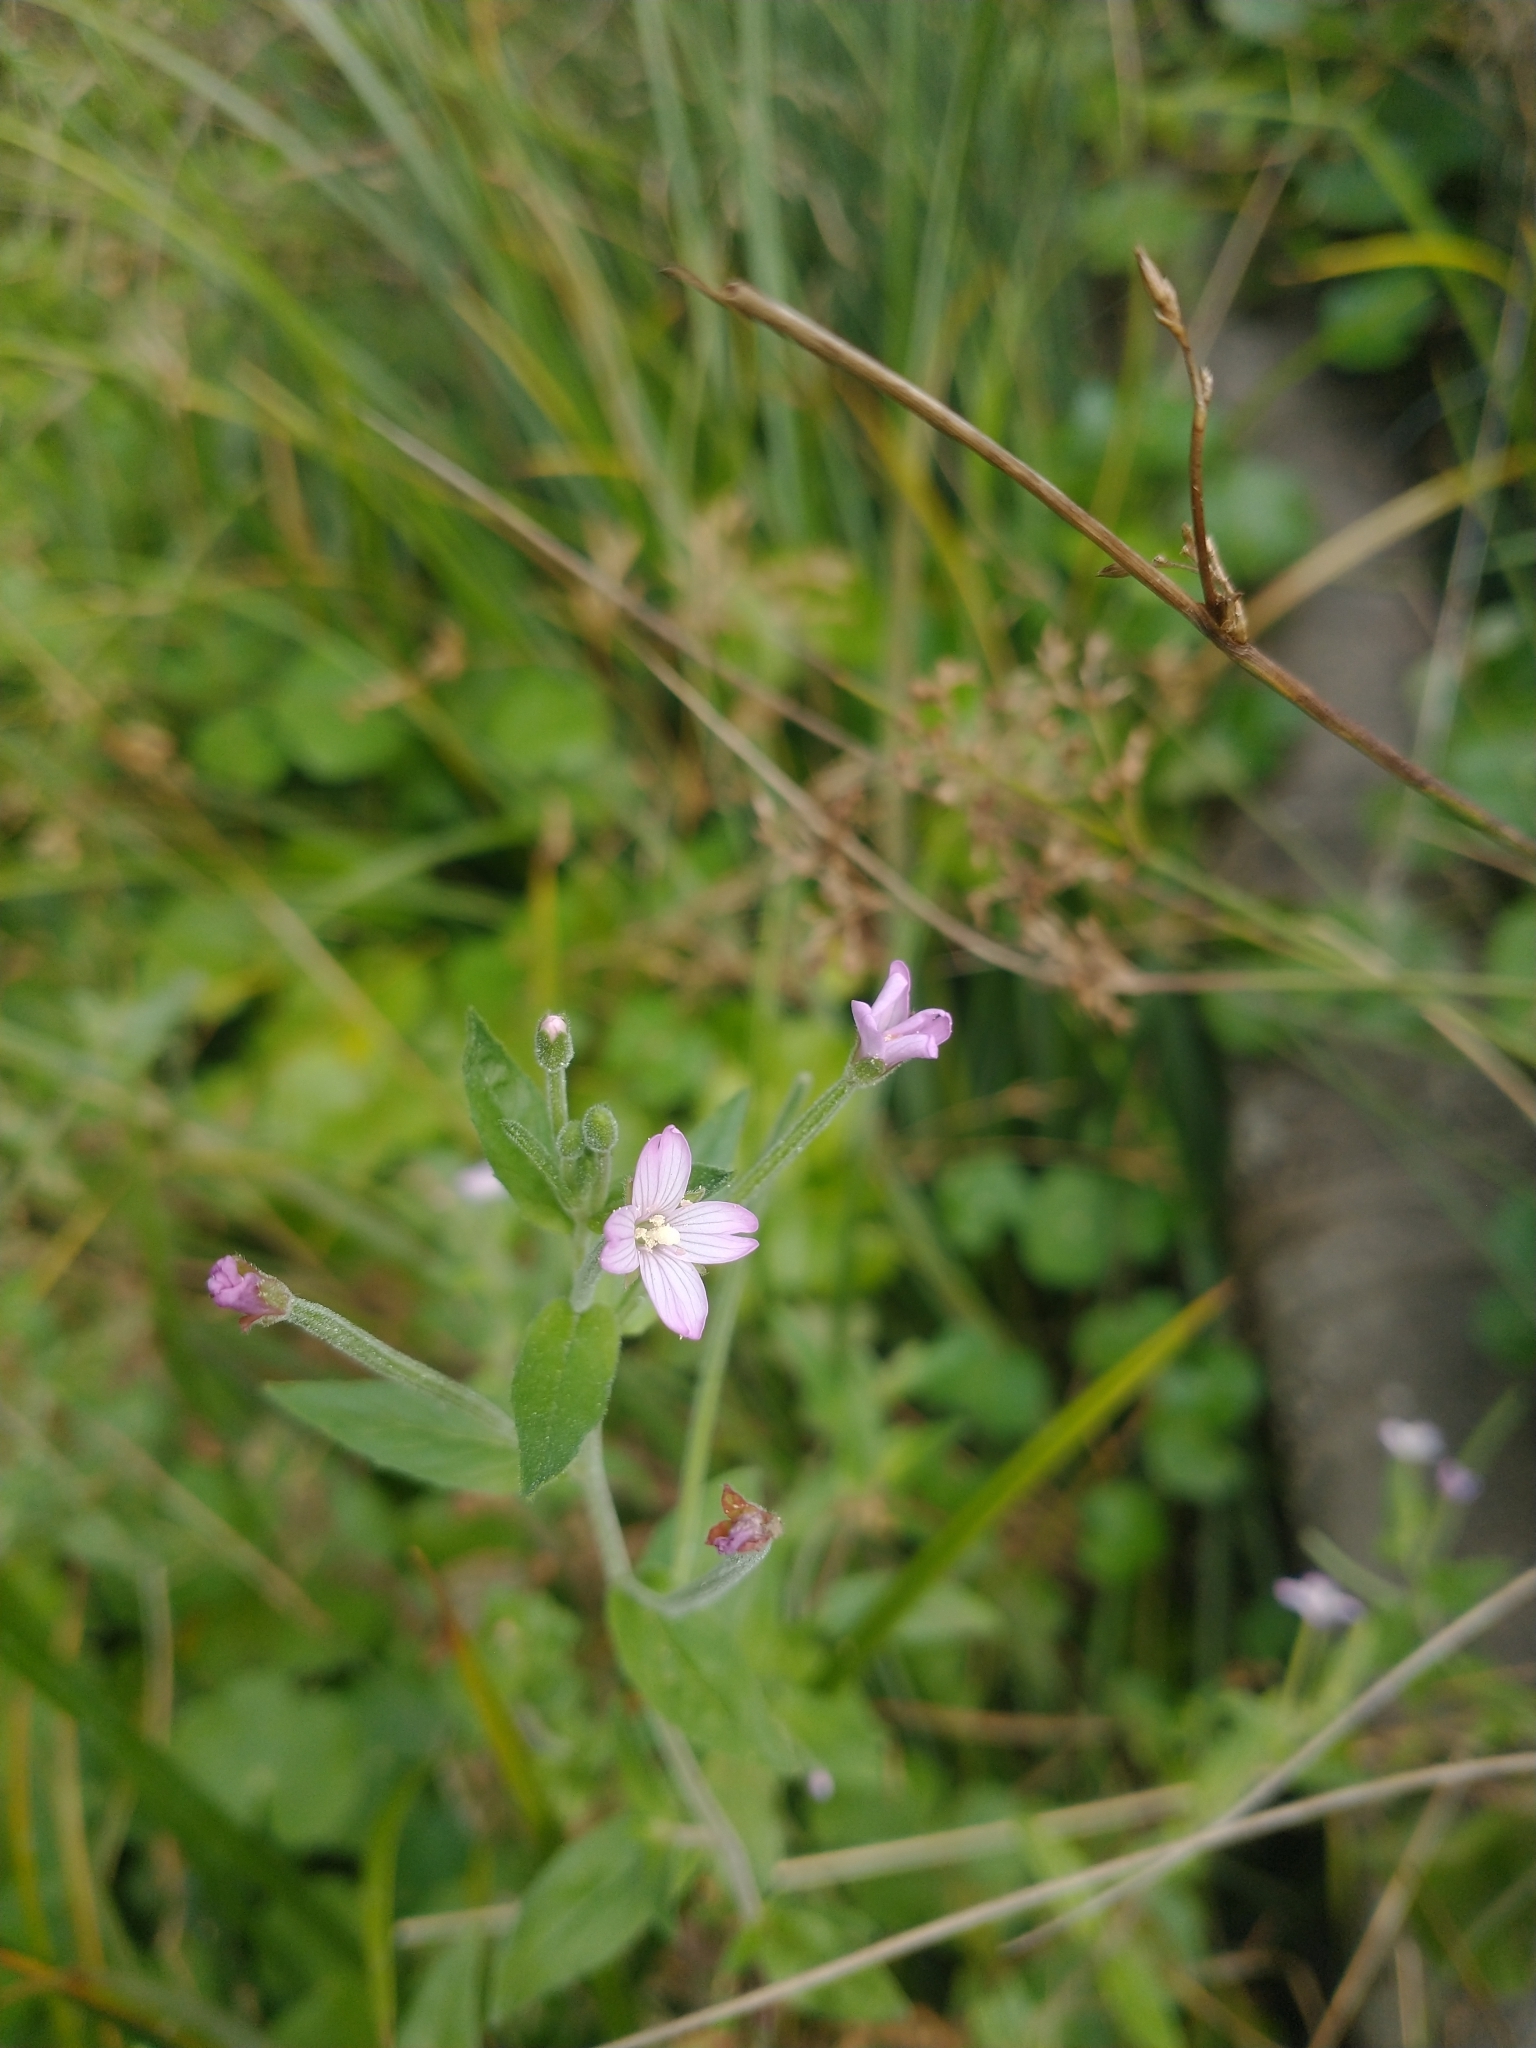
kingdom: Plantae
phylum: Tracheophyta
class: Magnoliopsida
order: Myrtales
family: Onagraceae
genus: Epilobium
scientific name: Epilobium ciliatum
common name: American willowherb
